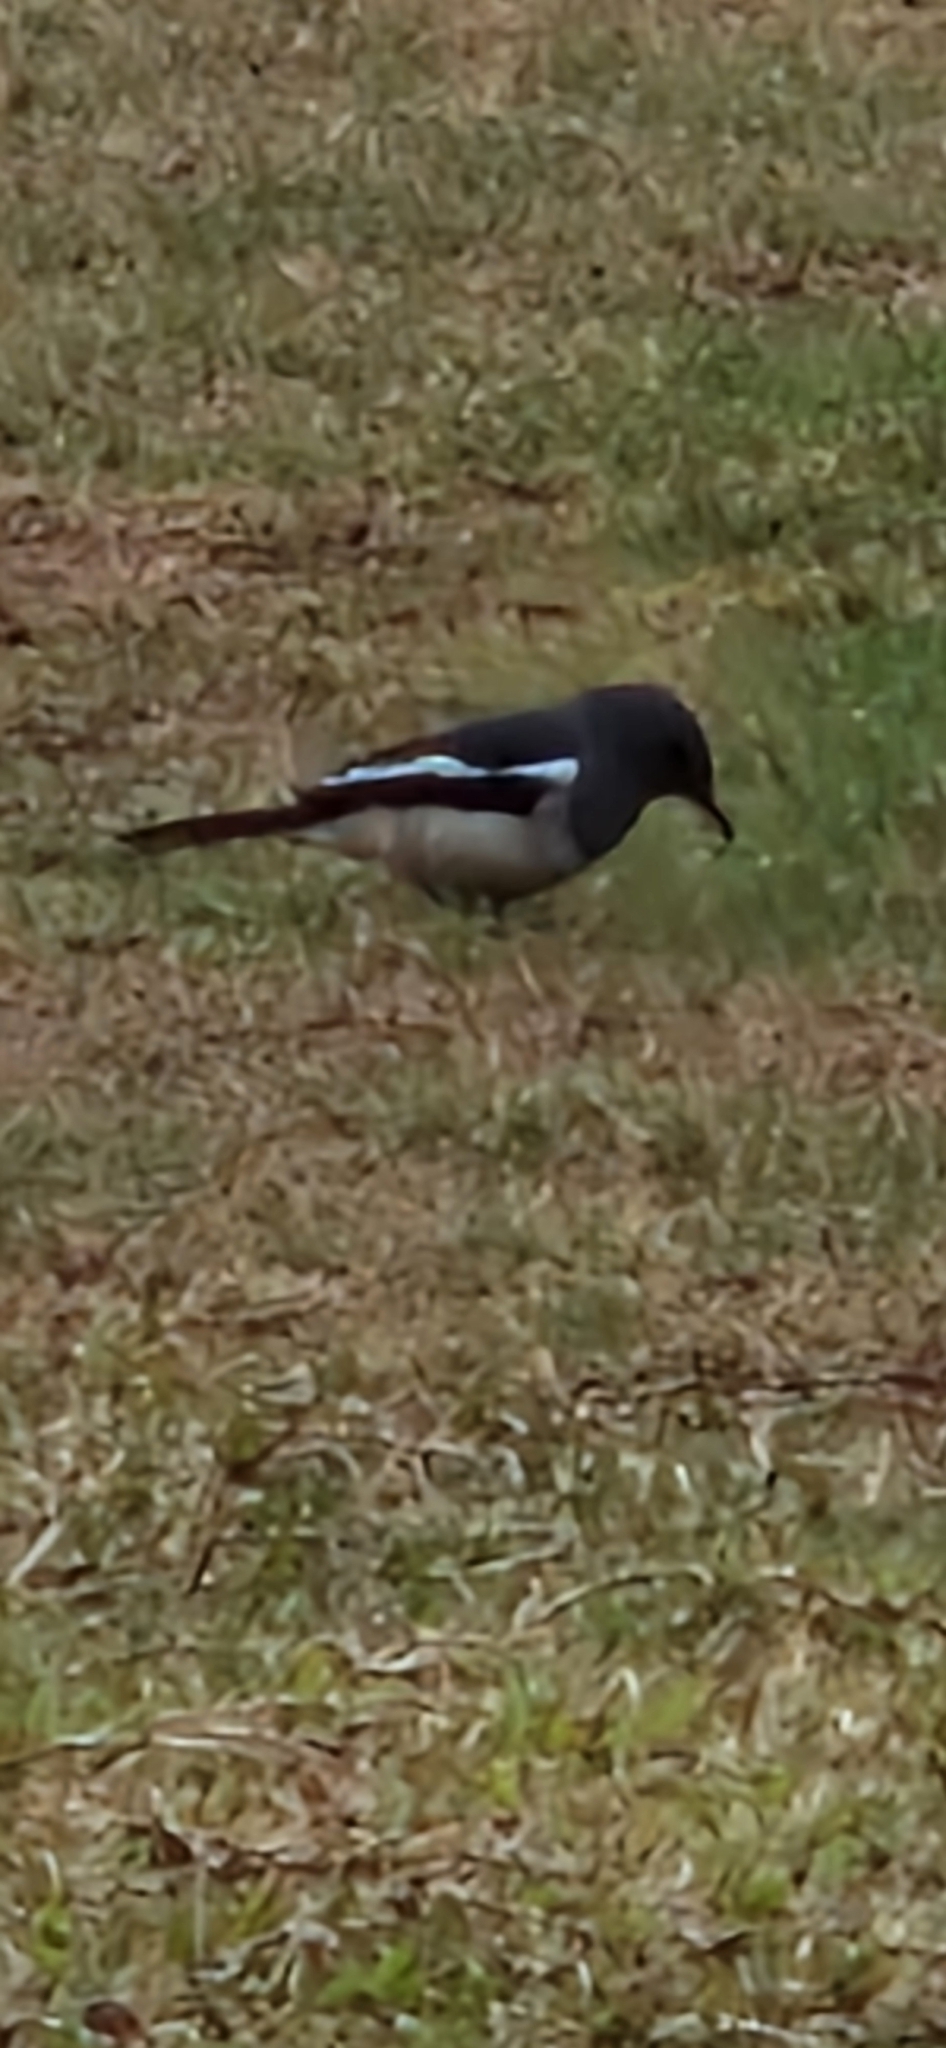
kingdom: Animalia
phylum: Chordata
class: Aves
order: Passeriformes
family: Muscicapidae
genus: Copsychus
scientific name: Copsychus saularis
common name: Oriental magpie-robin
